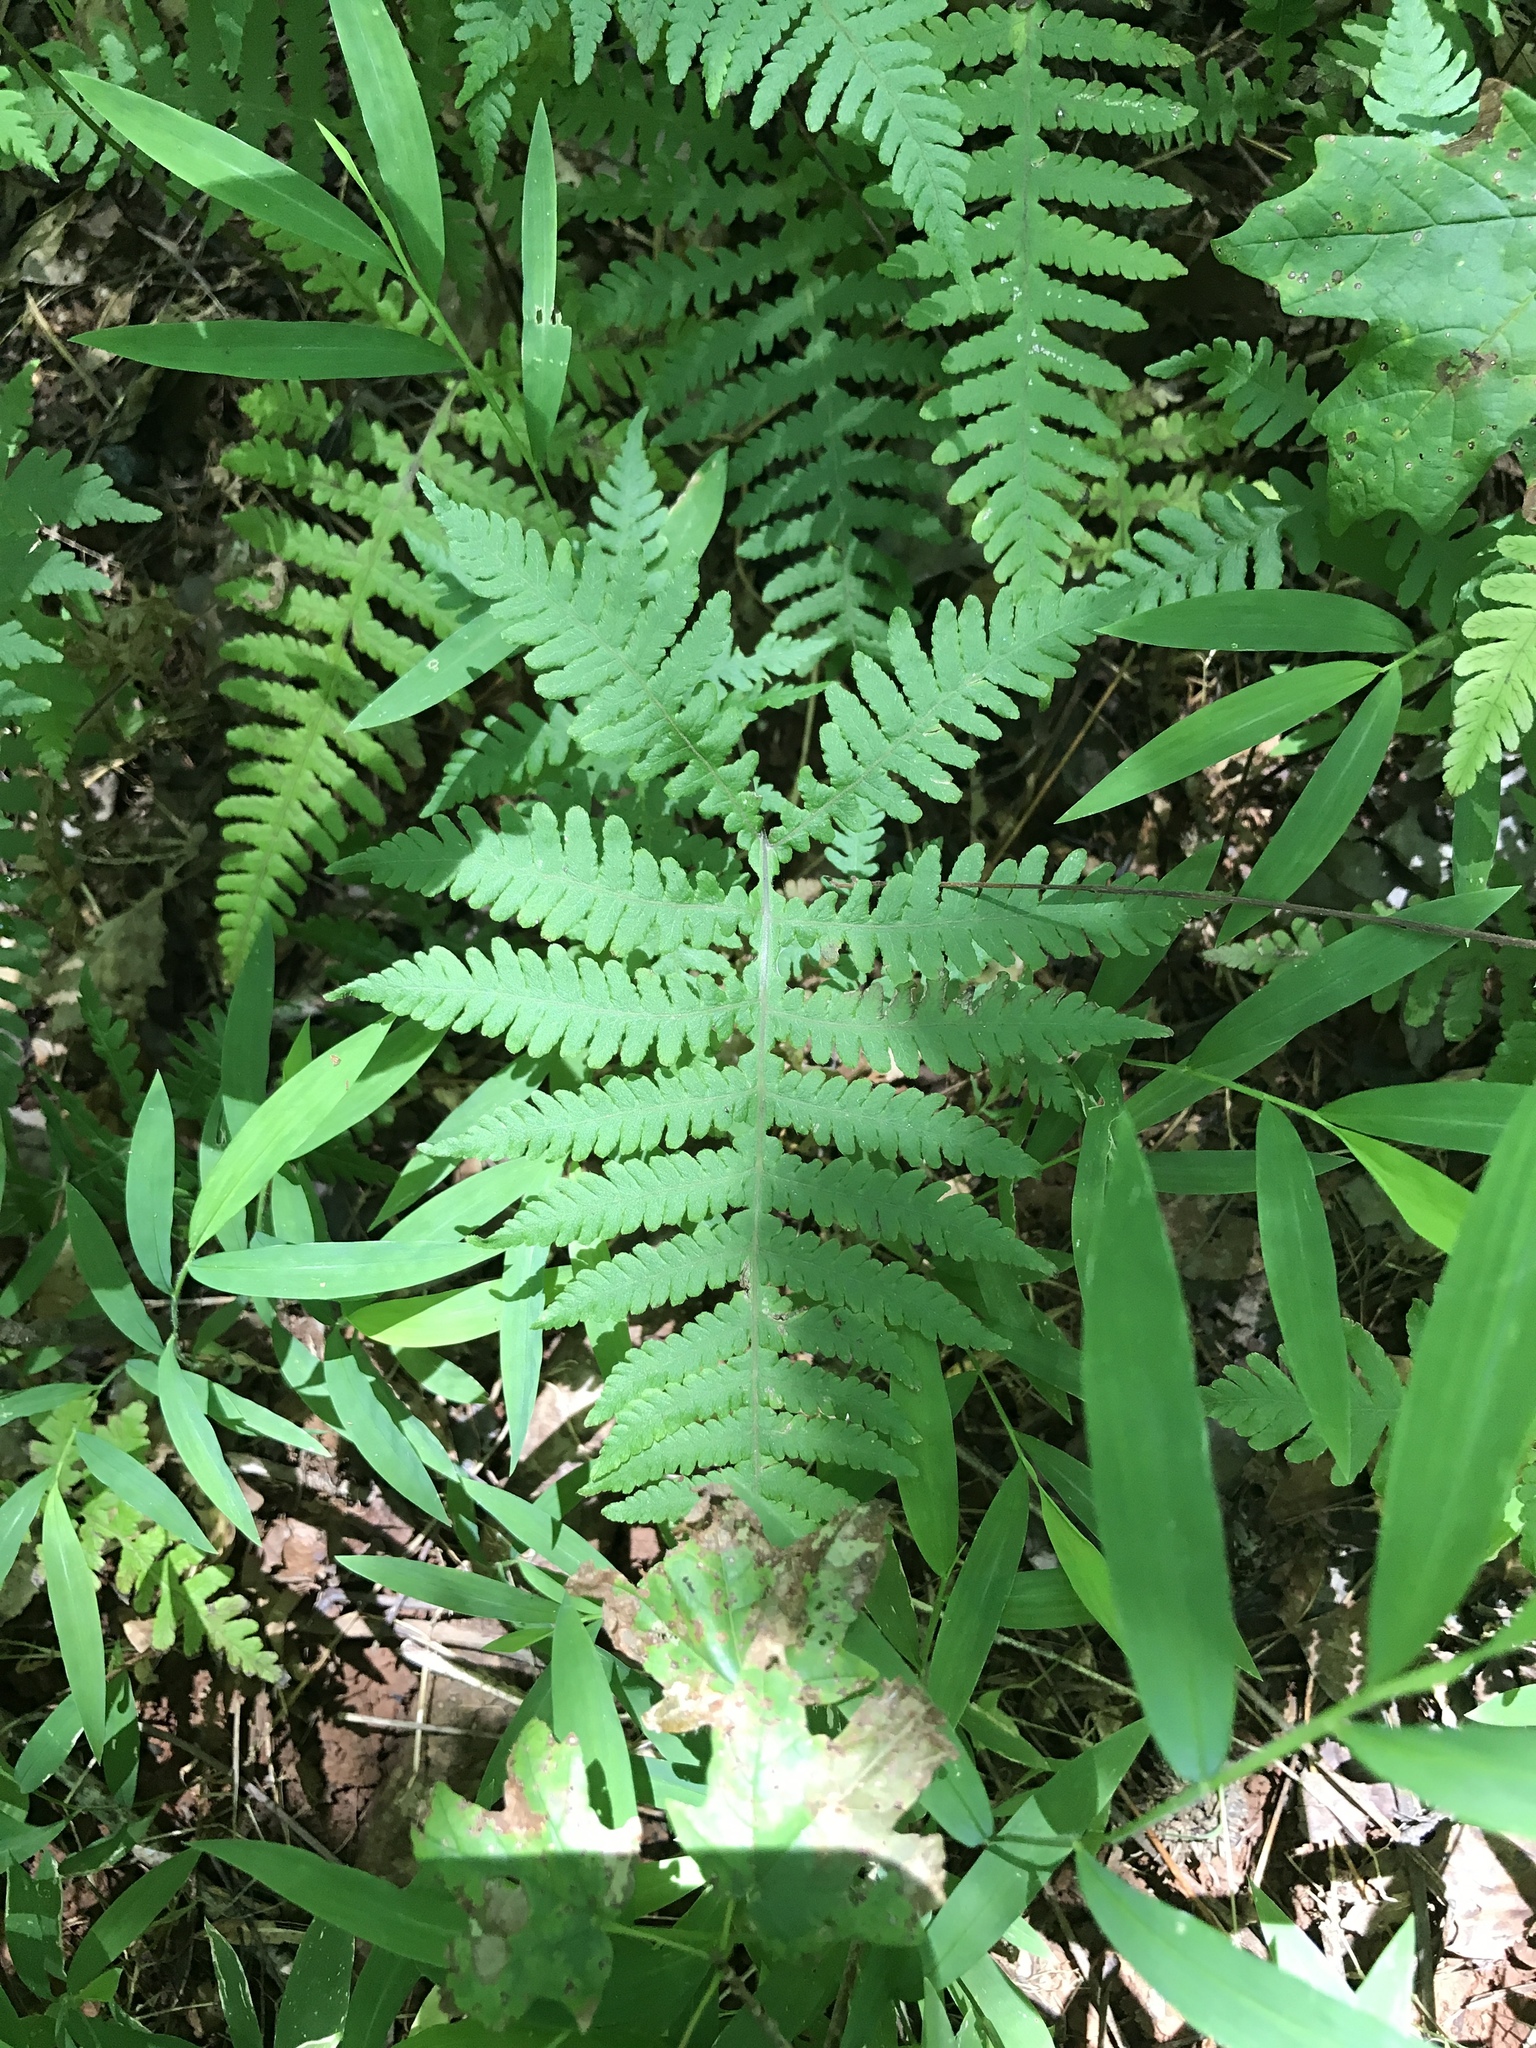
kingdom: Plantae
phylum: Tracheophyta
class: Polypodiopsida
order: Polypodiales
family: Thelypteridaceae
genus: Phegopteris
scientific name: Phegopteris hexagonoptera
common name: Broad beech fern
